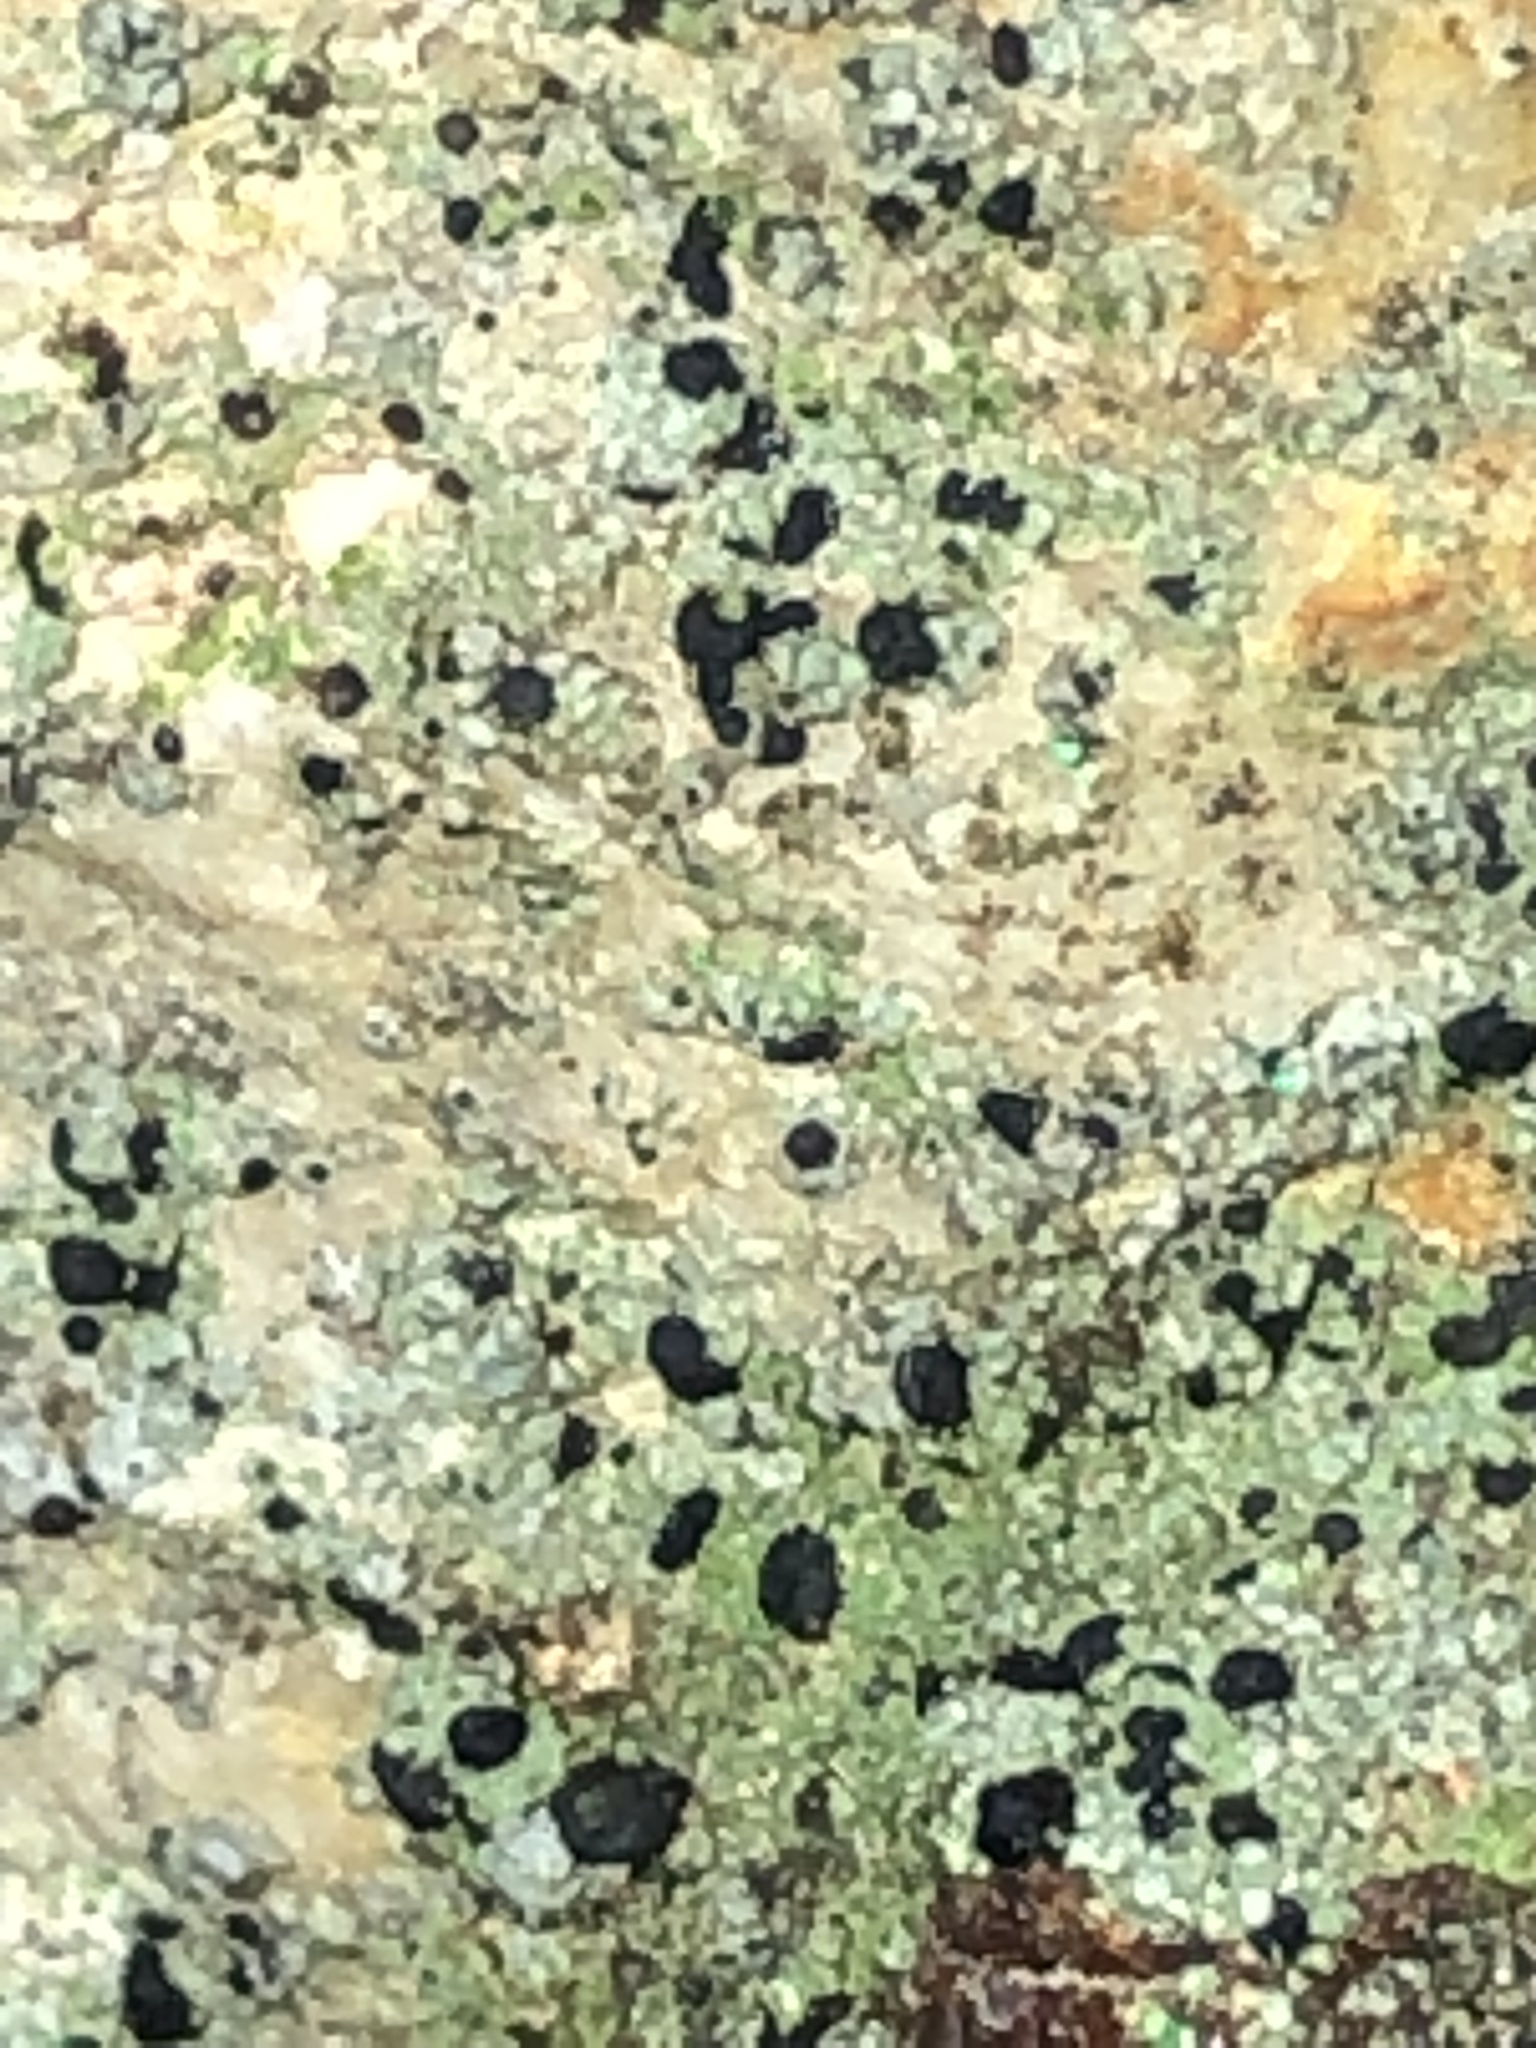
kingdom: Fungi
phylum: Ascomycota
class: Lecanoromycetes
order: Lecanorales
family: Ramalinaceae
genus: Bacidia
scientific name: Bacidia schweinitzii
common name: Surprise lichen
